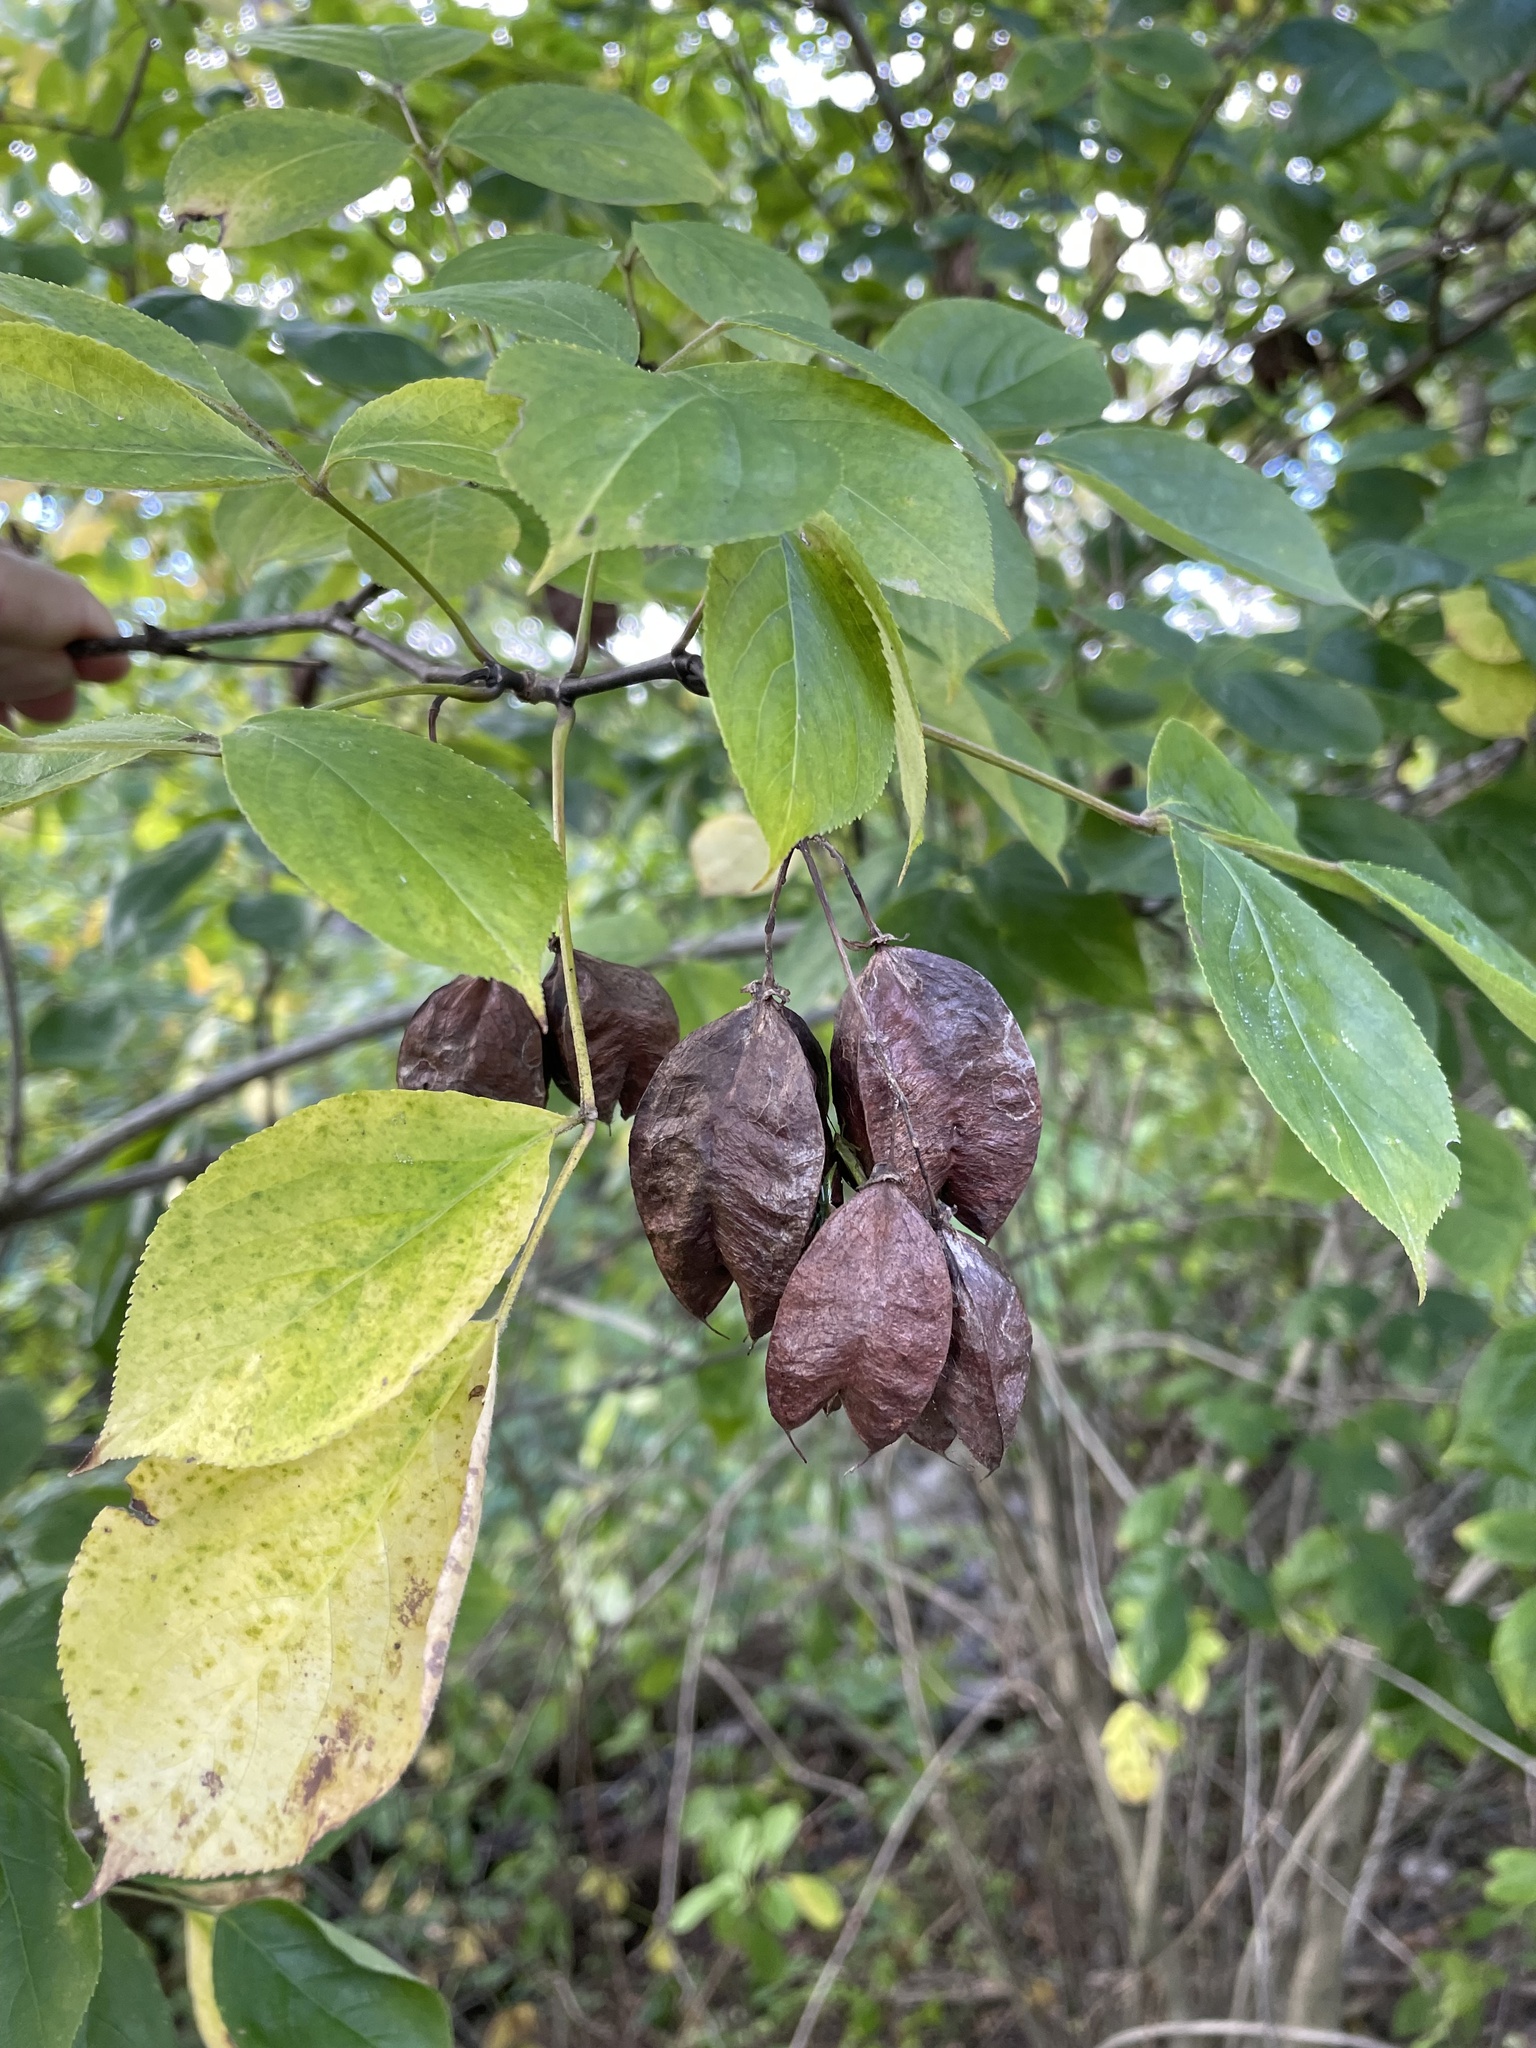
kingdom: Plantae
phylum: Tracheophyta
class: Magnoliopsida
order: Crossosomatales
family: Staphyleaceae
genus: Staphylea
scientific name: Staphylea trifolia
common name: American bladdernut
